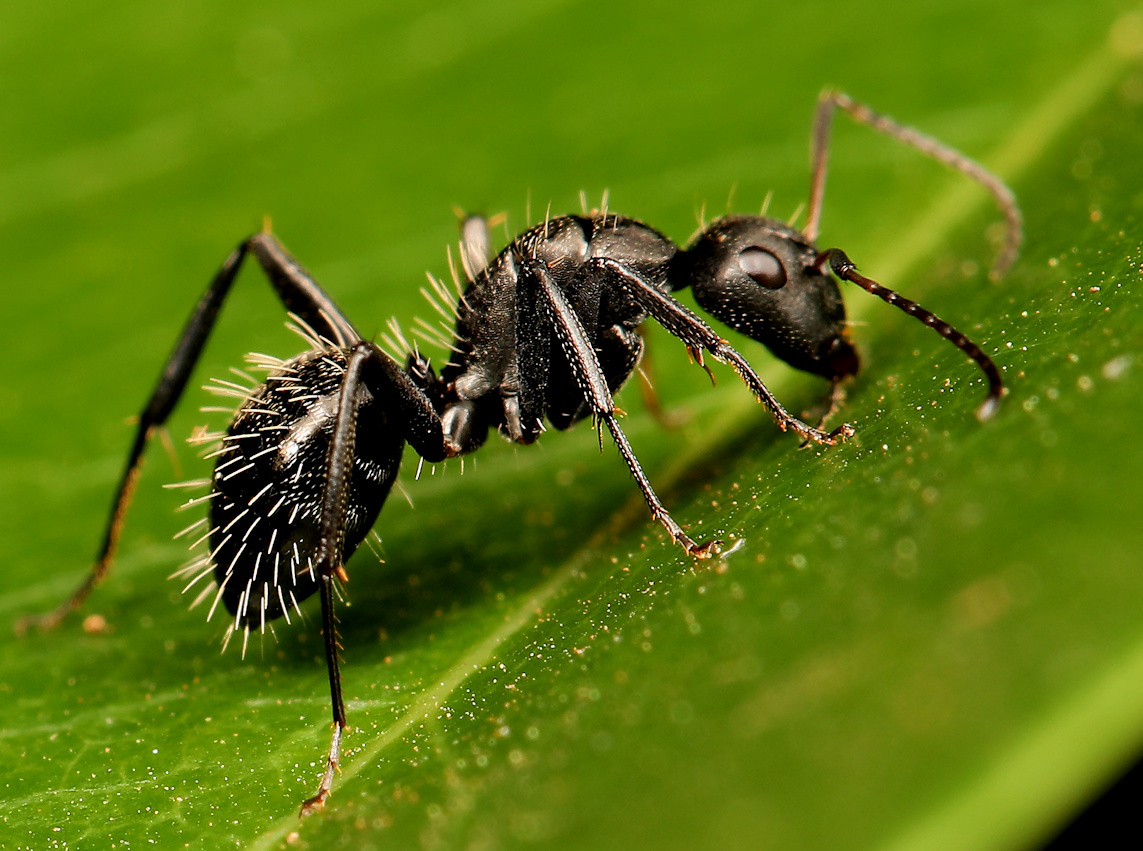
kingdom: Animalia
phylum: Arthropoda
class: Insecta
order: Hymenoptera
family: Formicidae
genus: Camponotus
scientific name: Camponotus niveosetosus
